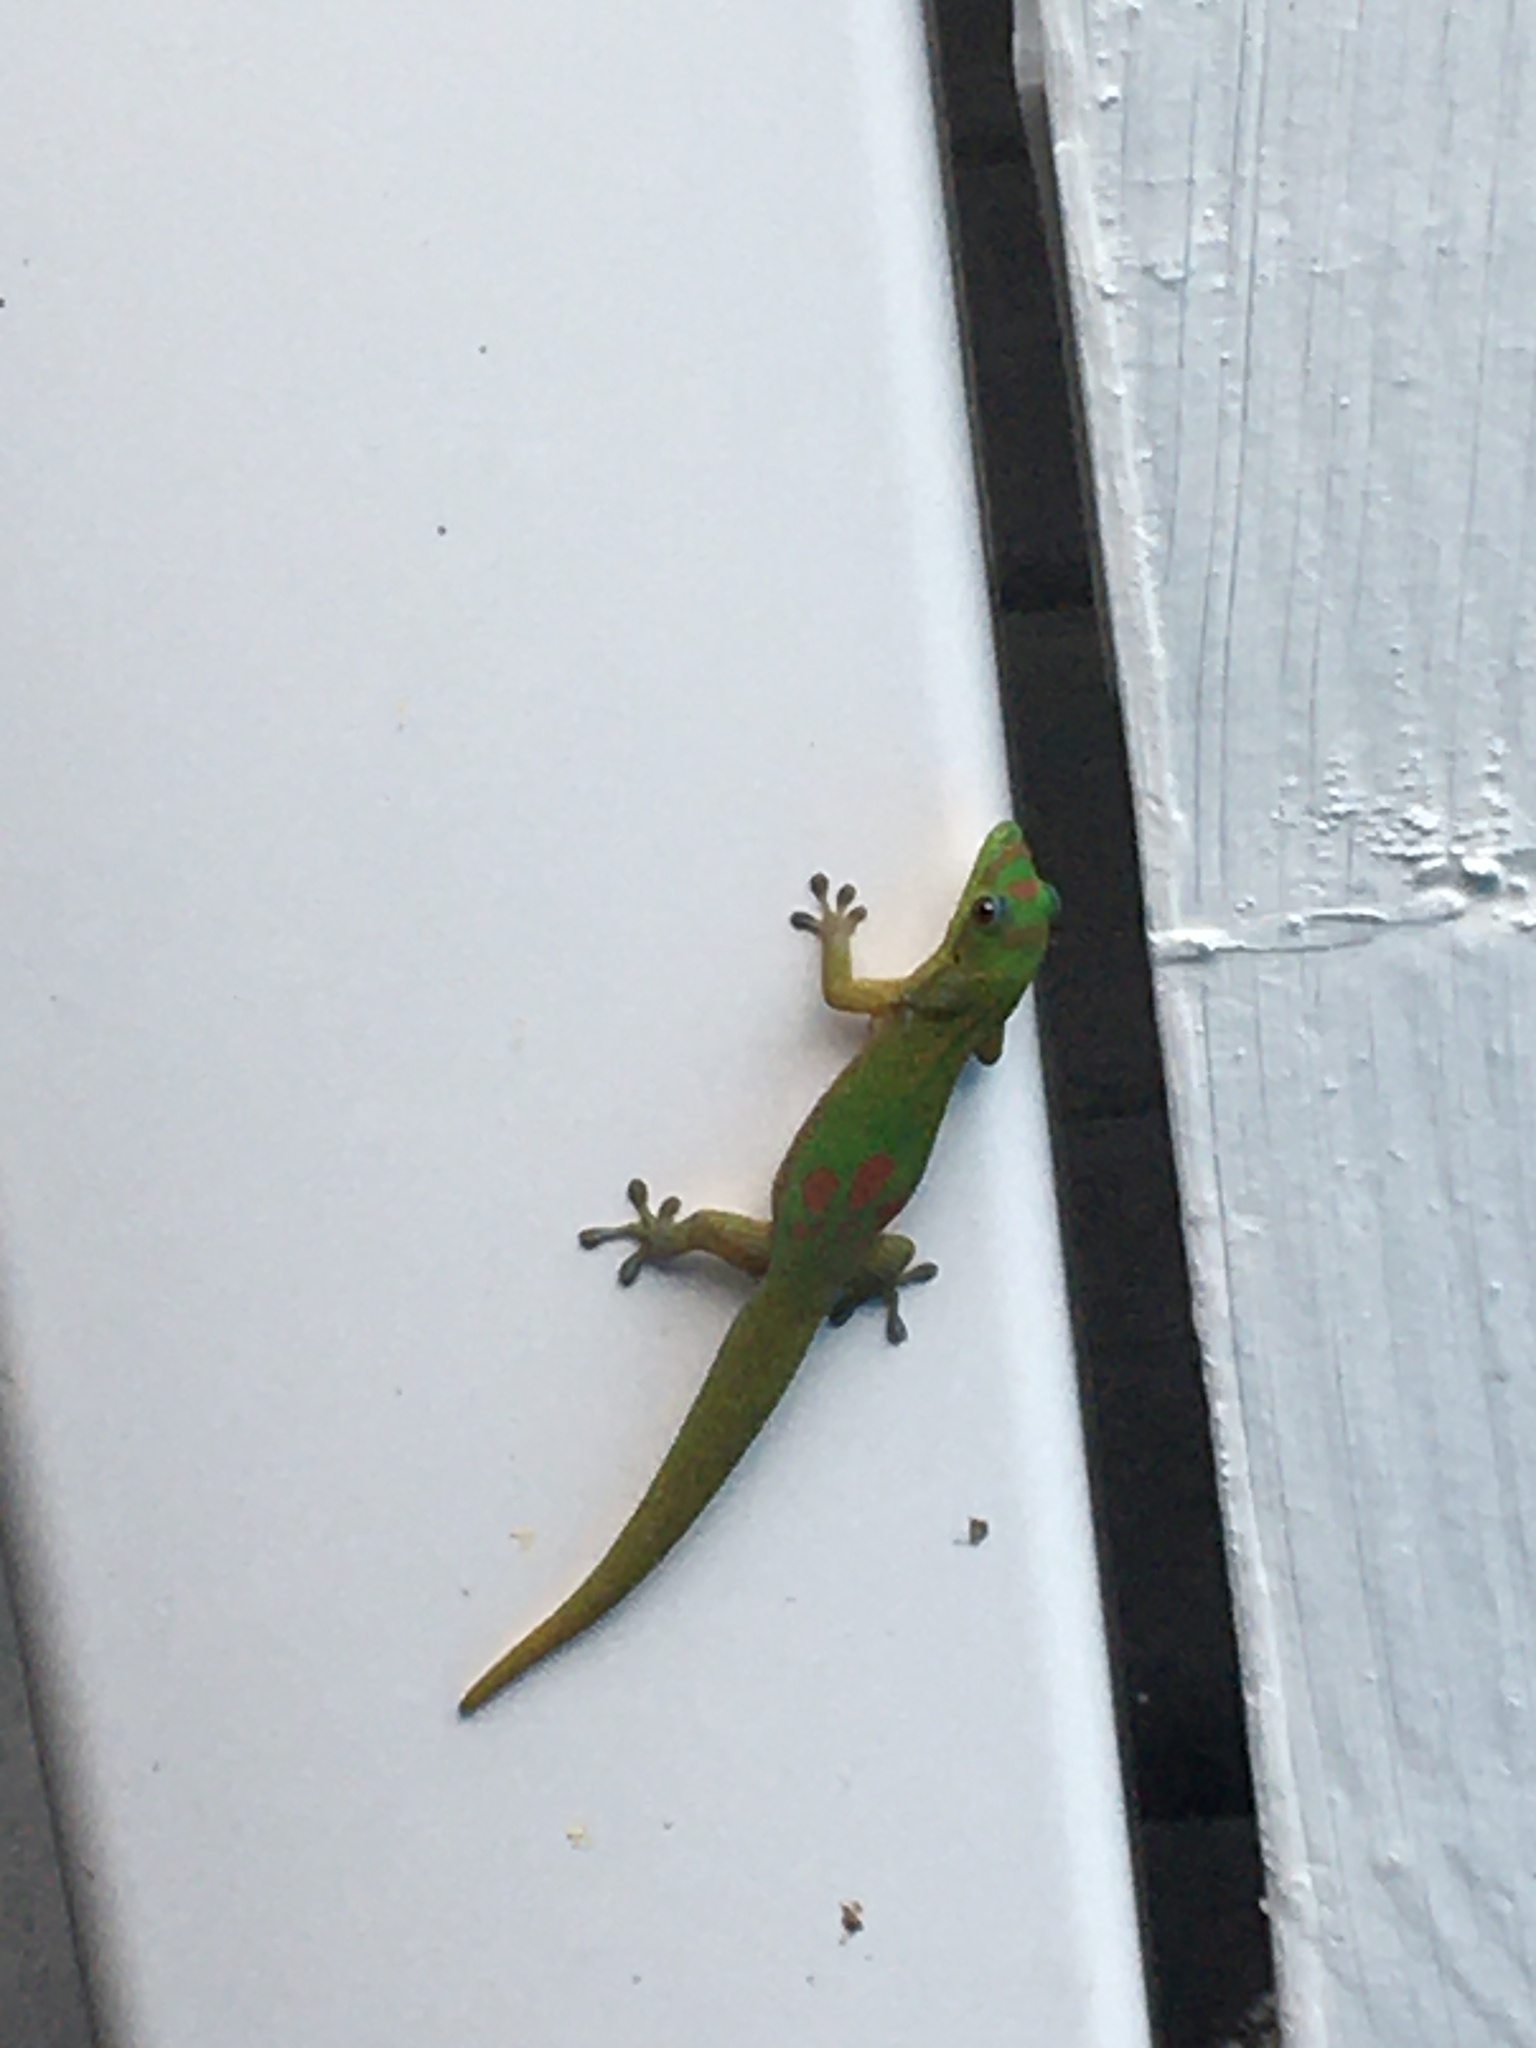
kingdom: Animalia
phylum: Chordata
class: Squamata
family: Gekkonidae
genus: Phelsuma
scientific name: Phelsuma laticauda
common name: Gold dust day gecko
